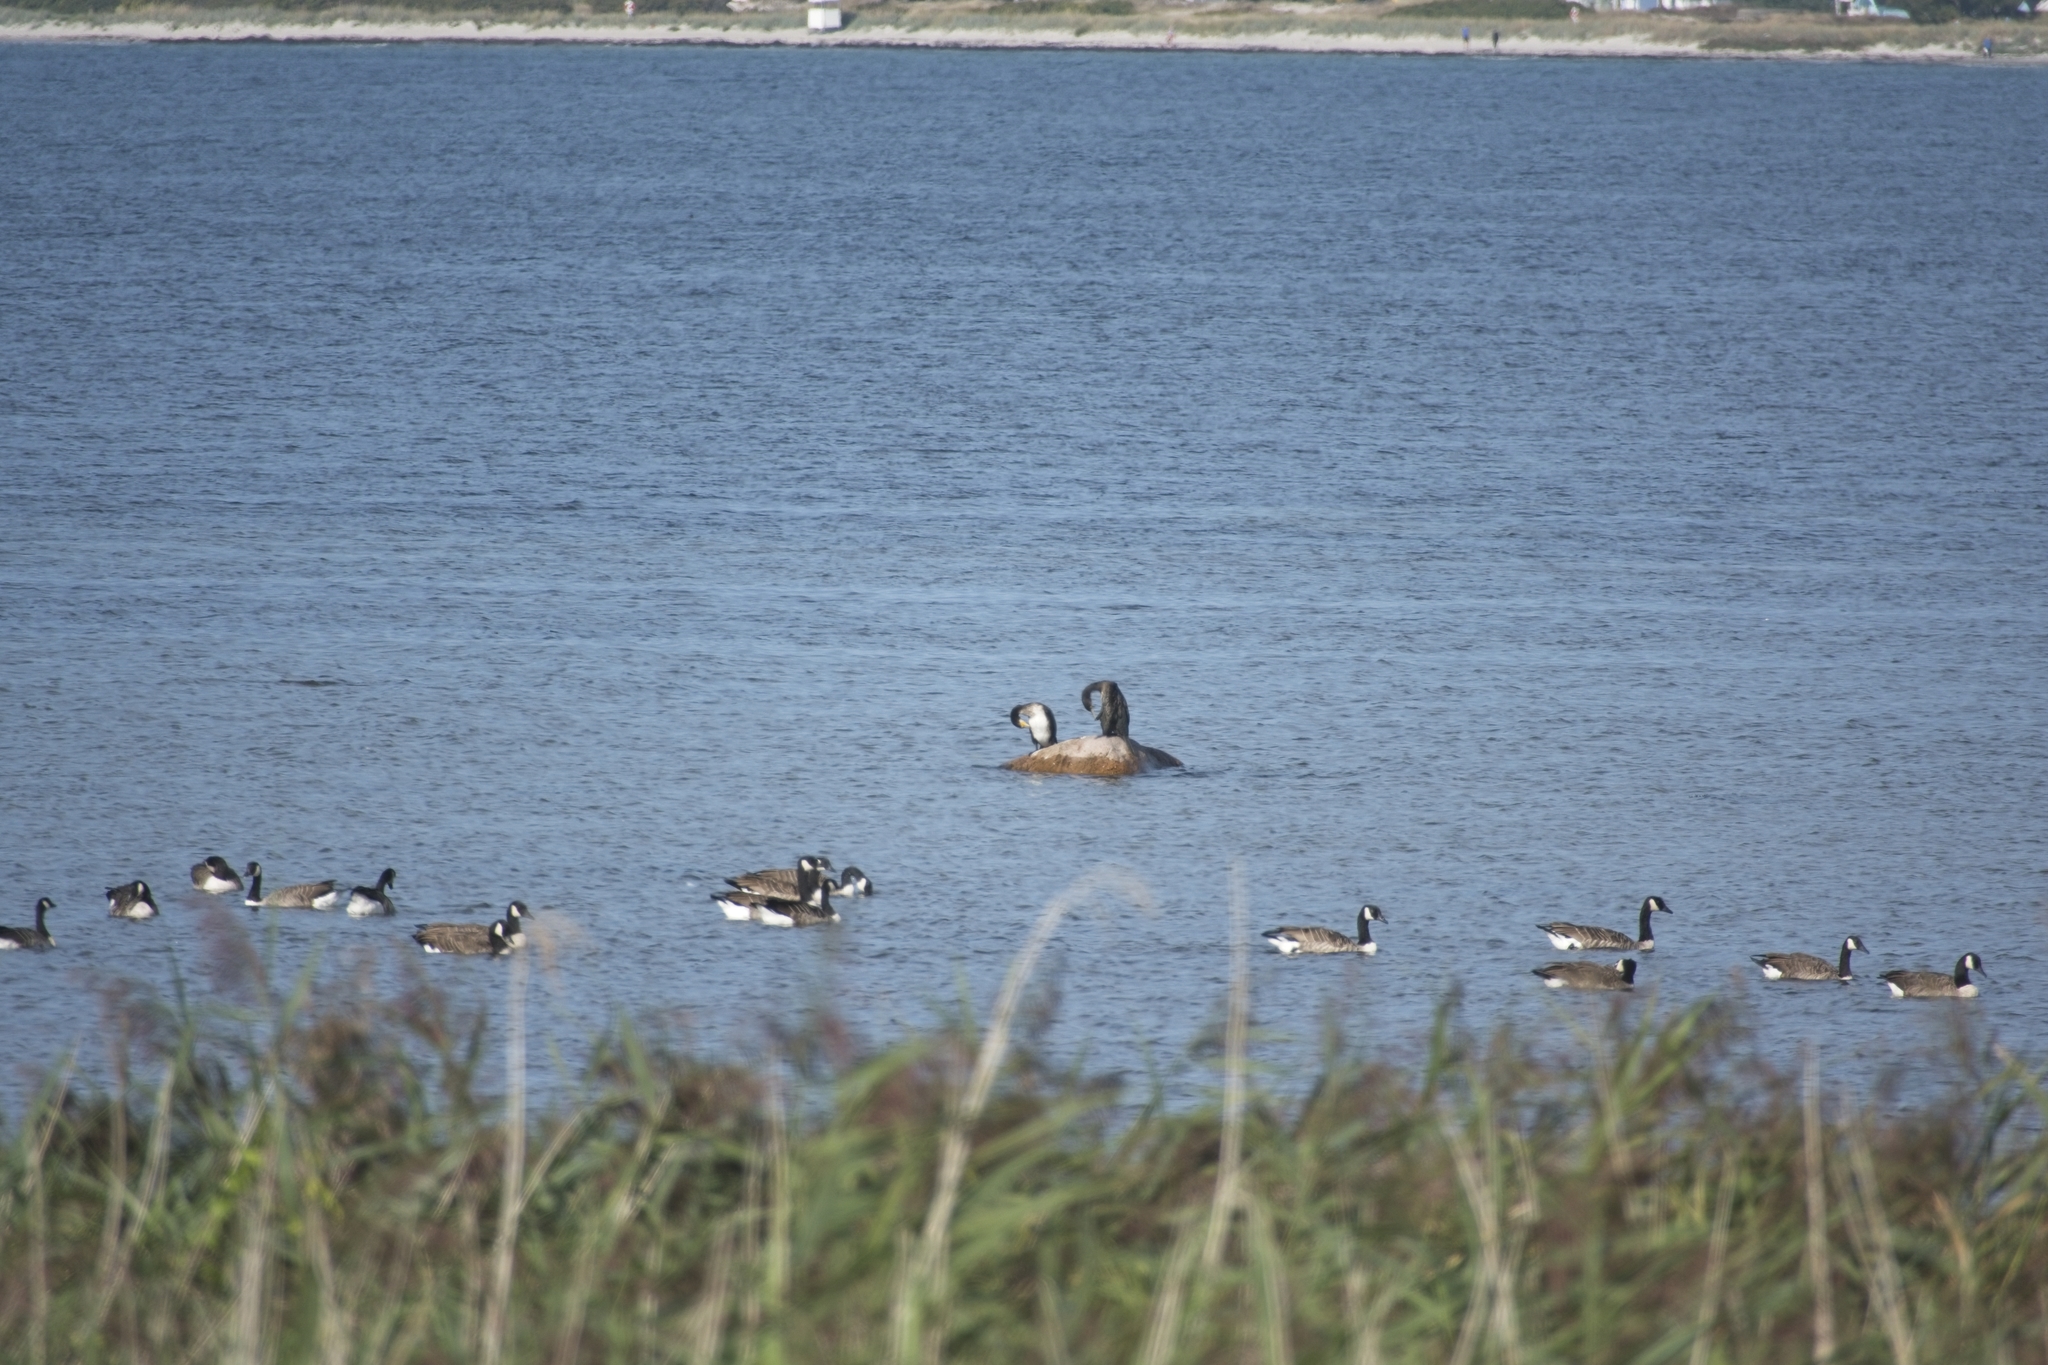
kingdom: Animalia
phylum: Chordata
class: Aves
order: Anseriformes
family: Anatidae
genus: Branta
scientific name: Branta canadensis
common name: Canada goose
